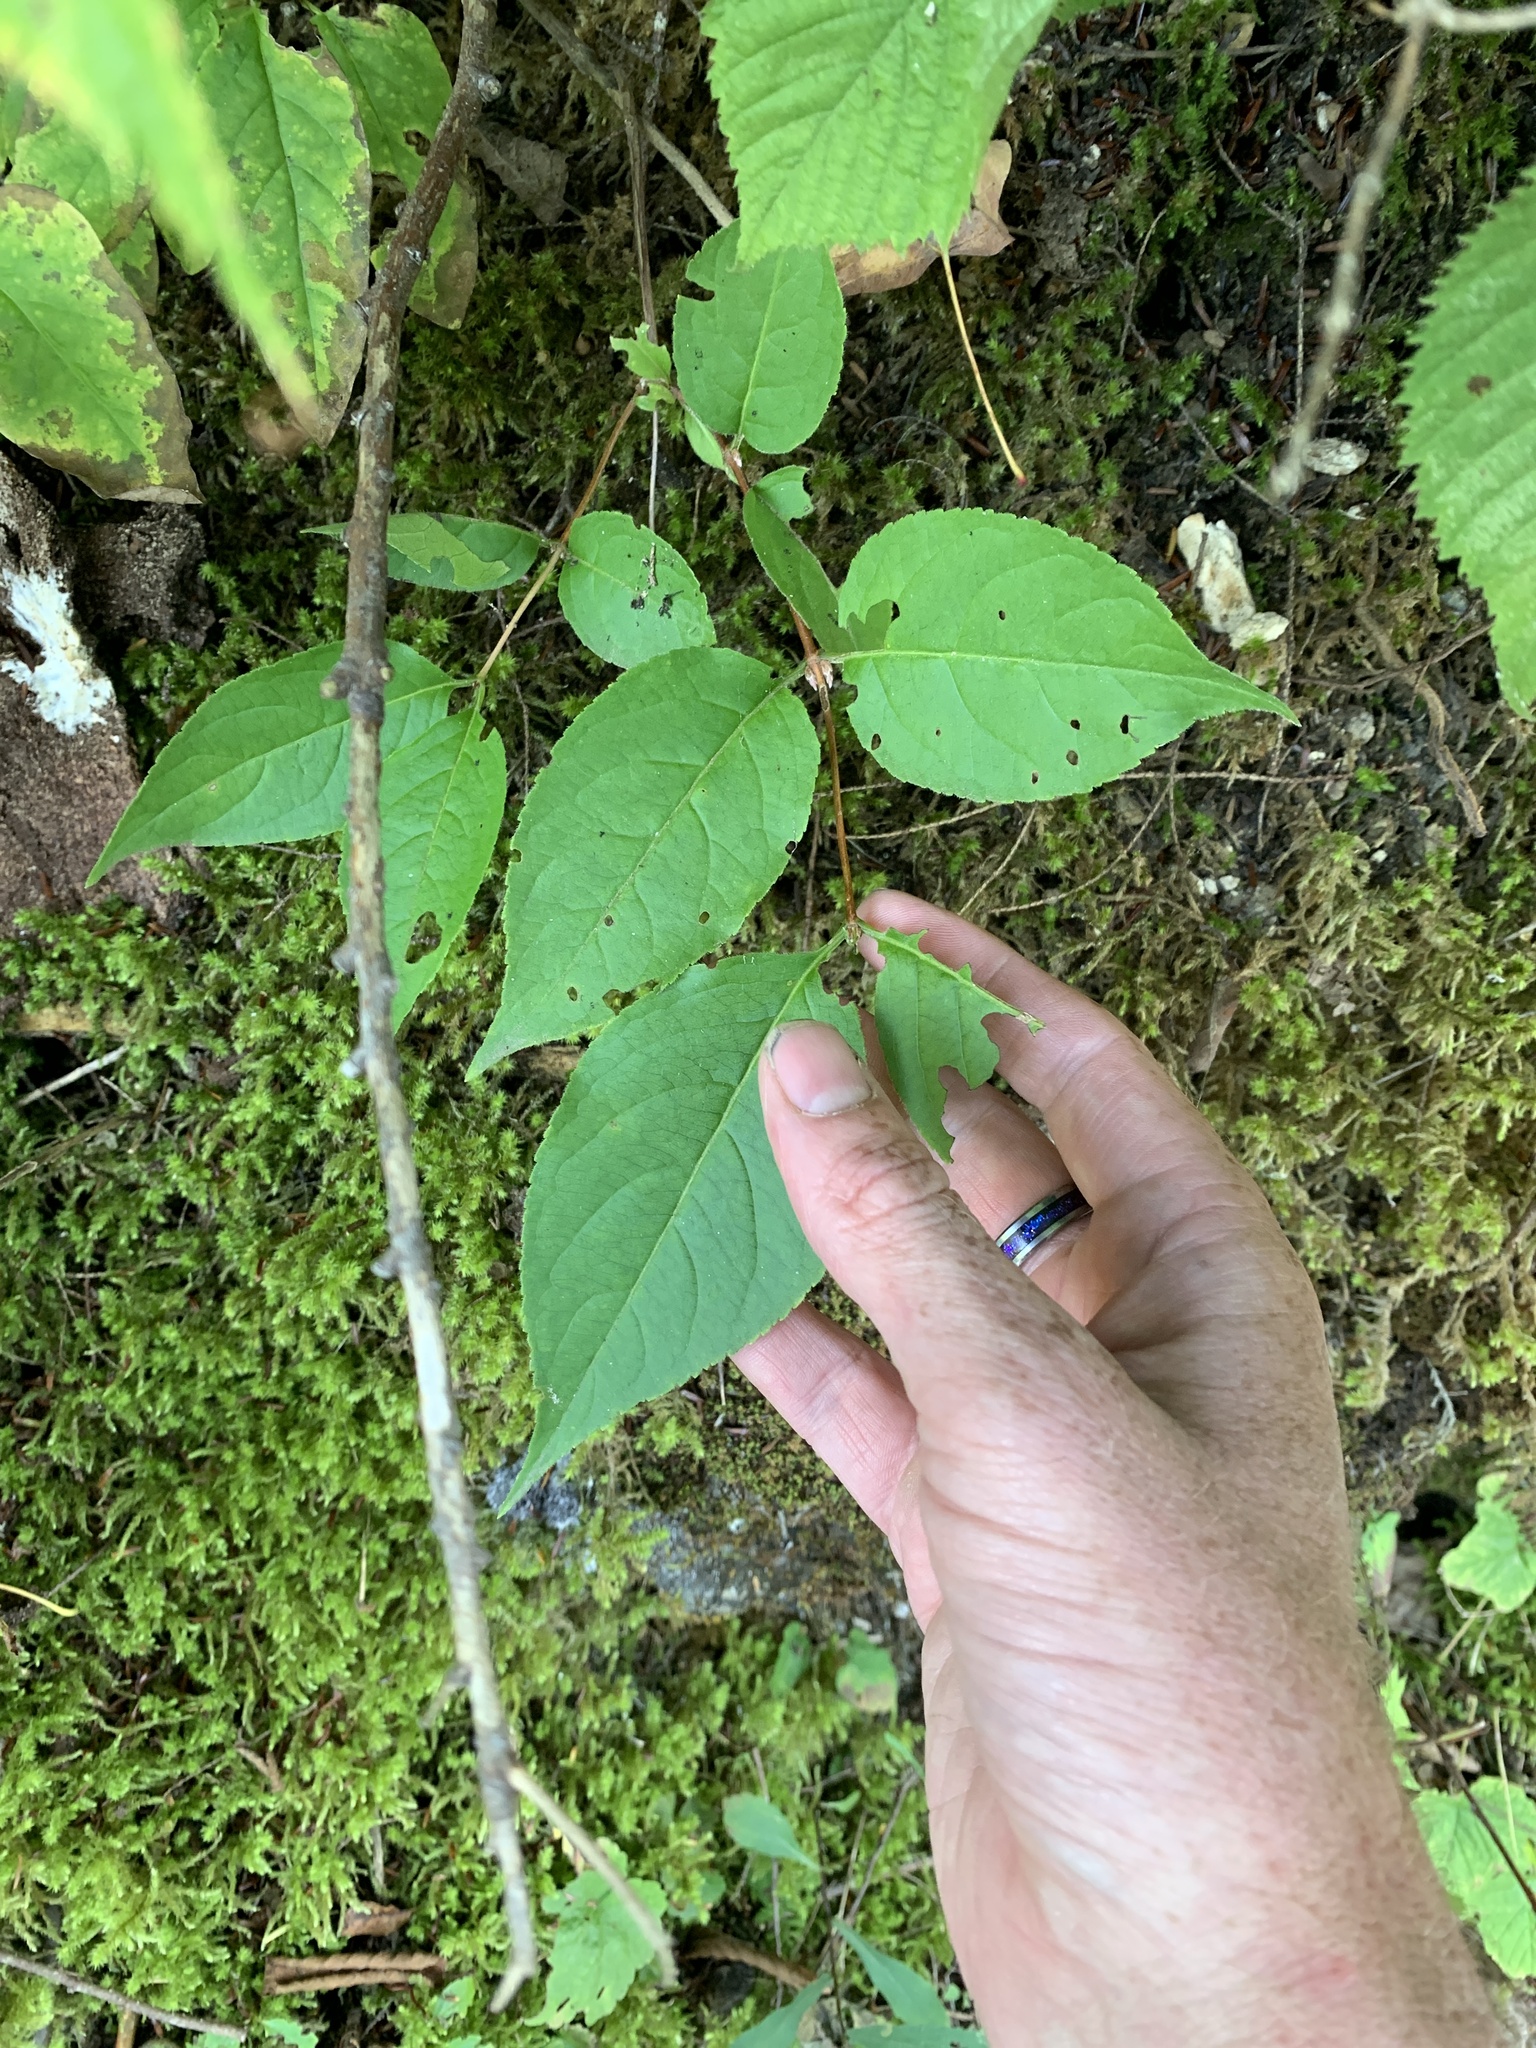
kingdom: Plantae
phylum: Tracheophyta
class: Magnoliopsida
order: Dipsacales
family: Caprifoliaceae
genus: Diervilla
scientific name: Diervilla lonicera
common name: Bush-honeysuckle
